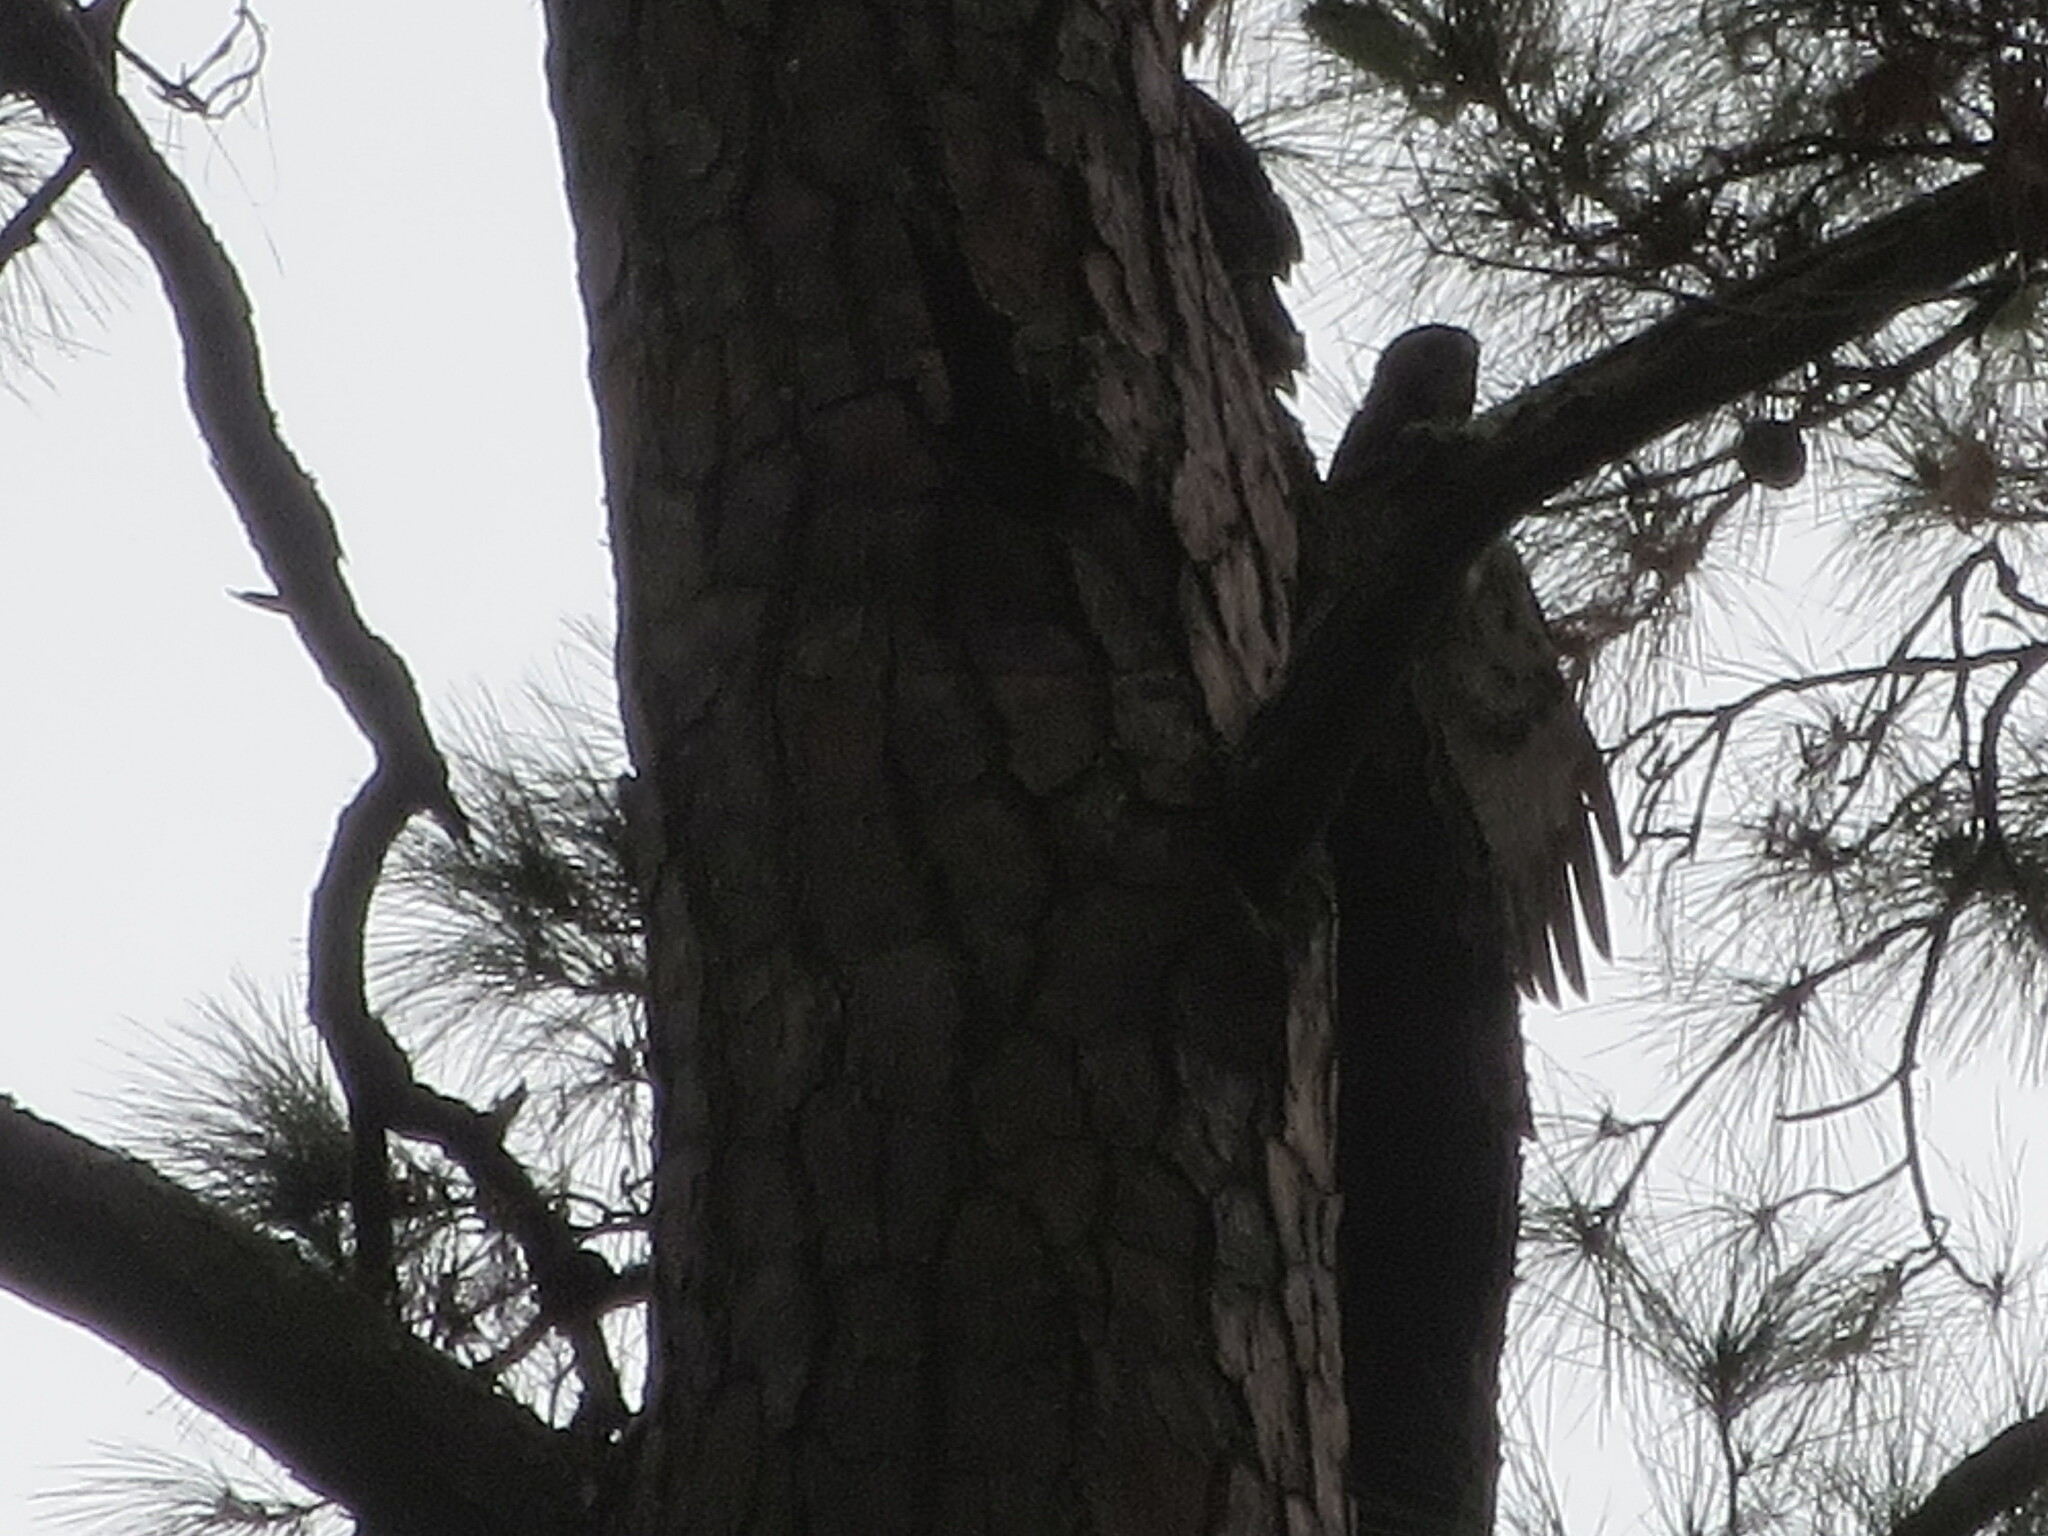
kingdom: Animalia
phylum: Chordata
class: Aves
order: Accipitriformes
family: Accipitridae
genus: Buteo
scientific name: Buteo jamaicensis
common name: Red-tailed hawk
